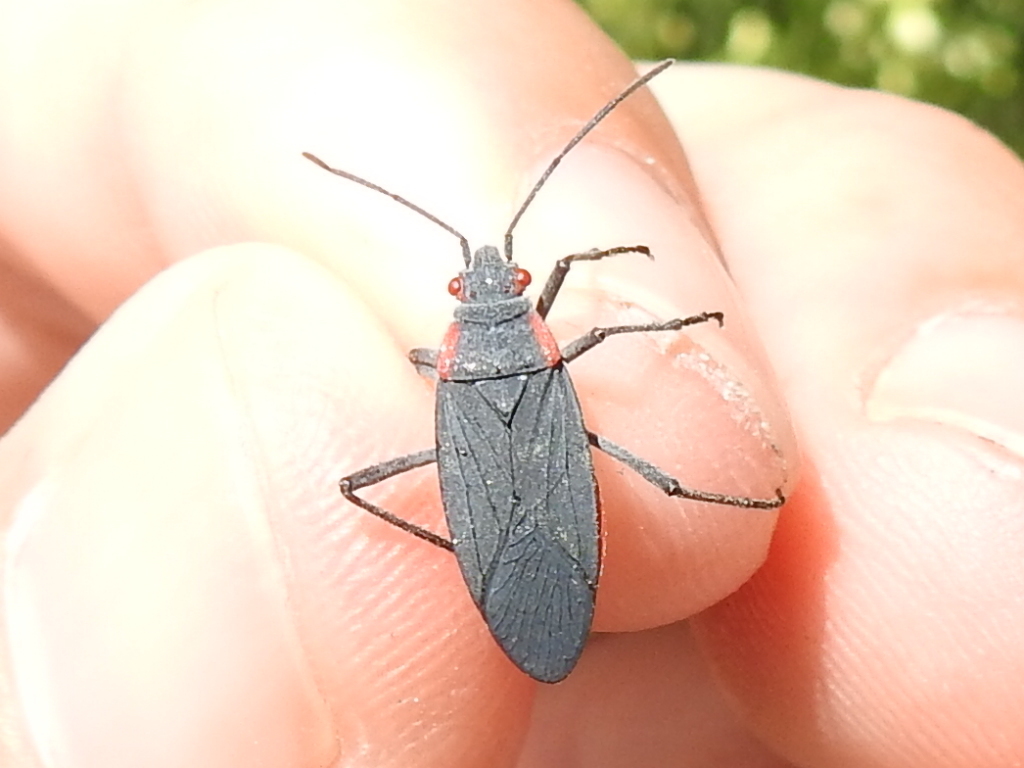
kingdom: Animalia
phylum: Arthropoda
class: Insecta
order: Hemiptera
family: Rhopalidae
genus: Jadera
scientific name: Jadera haematoloma
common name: Red-shouldered bug
